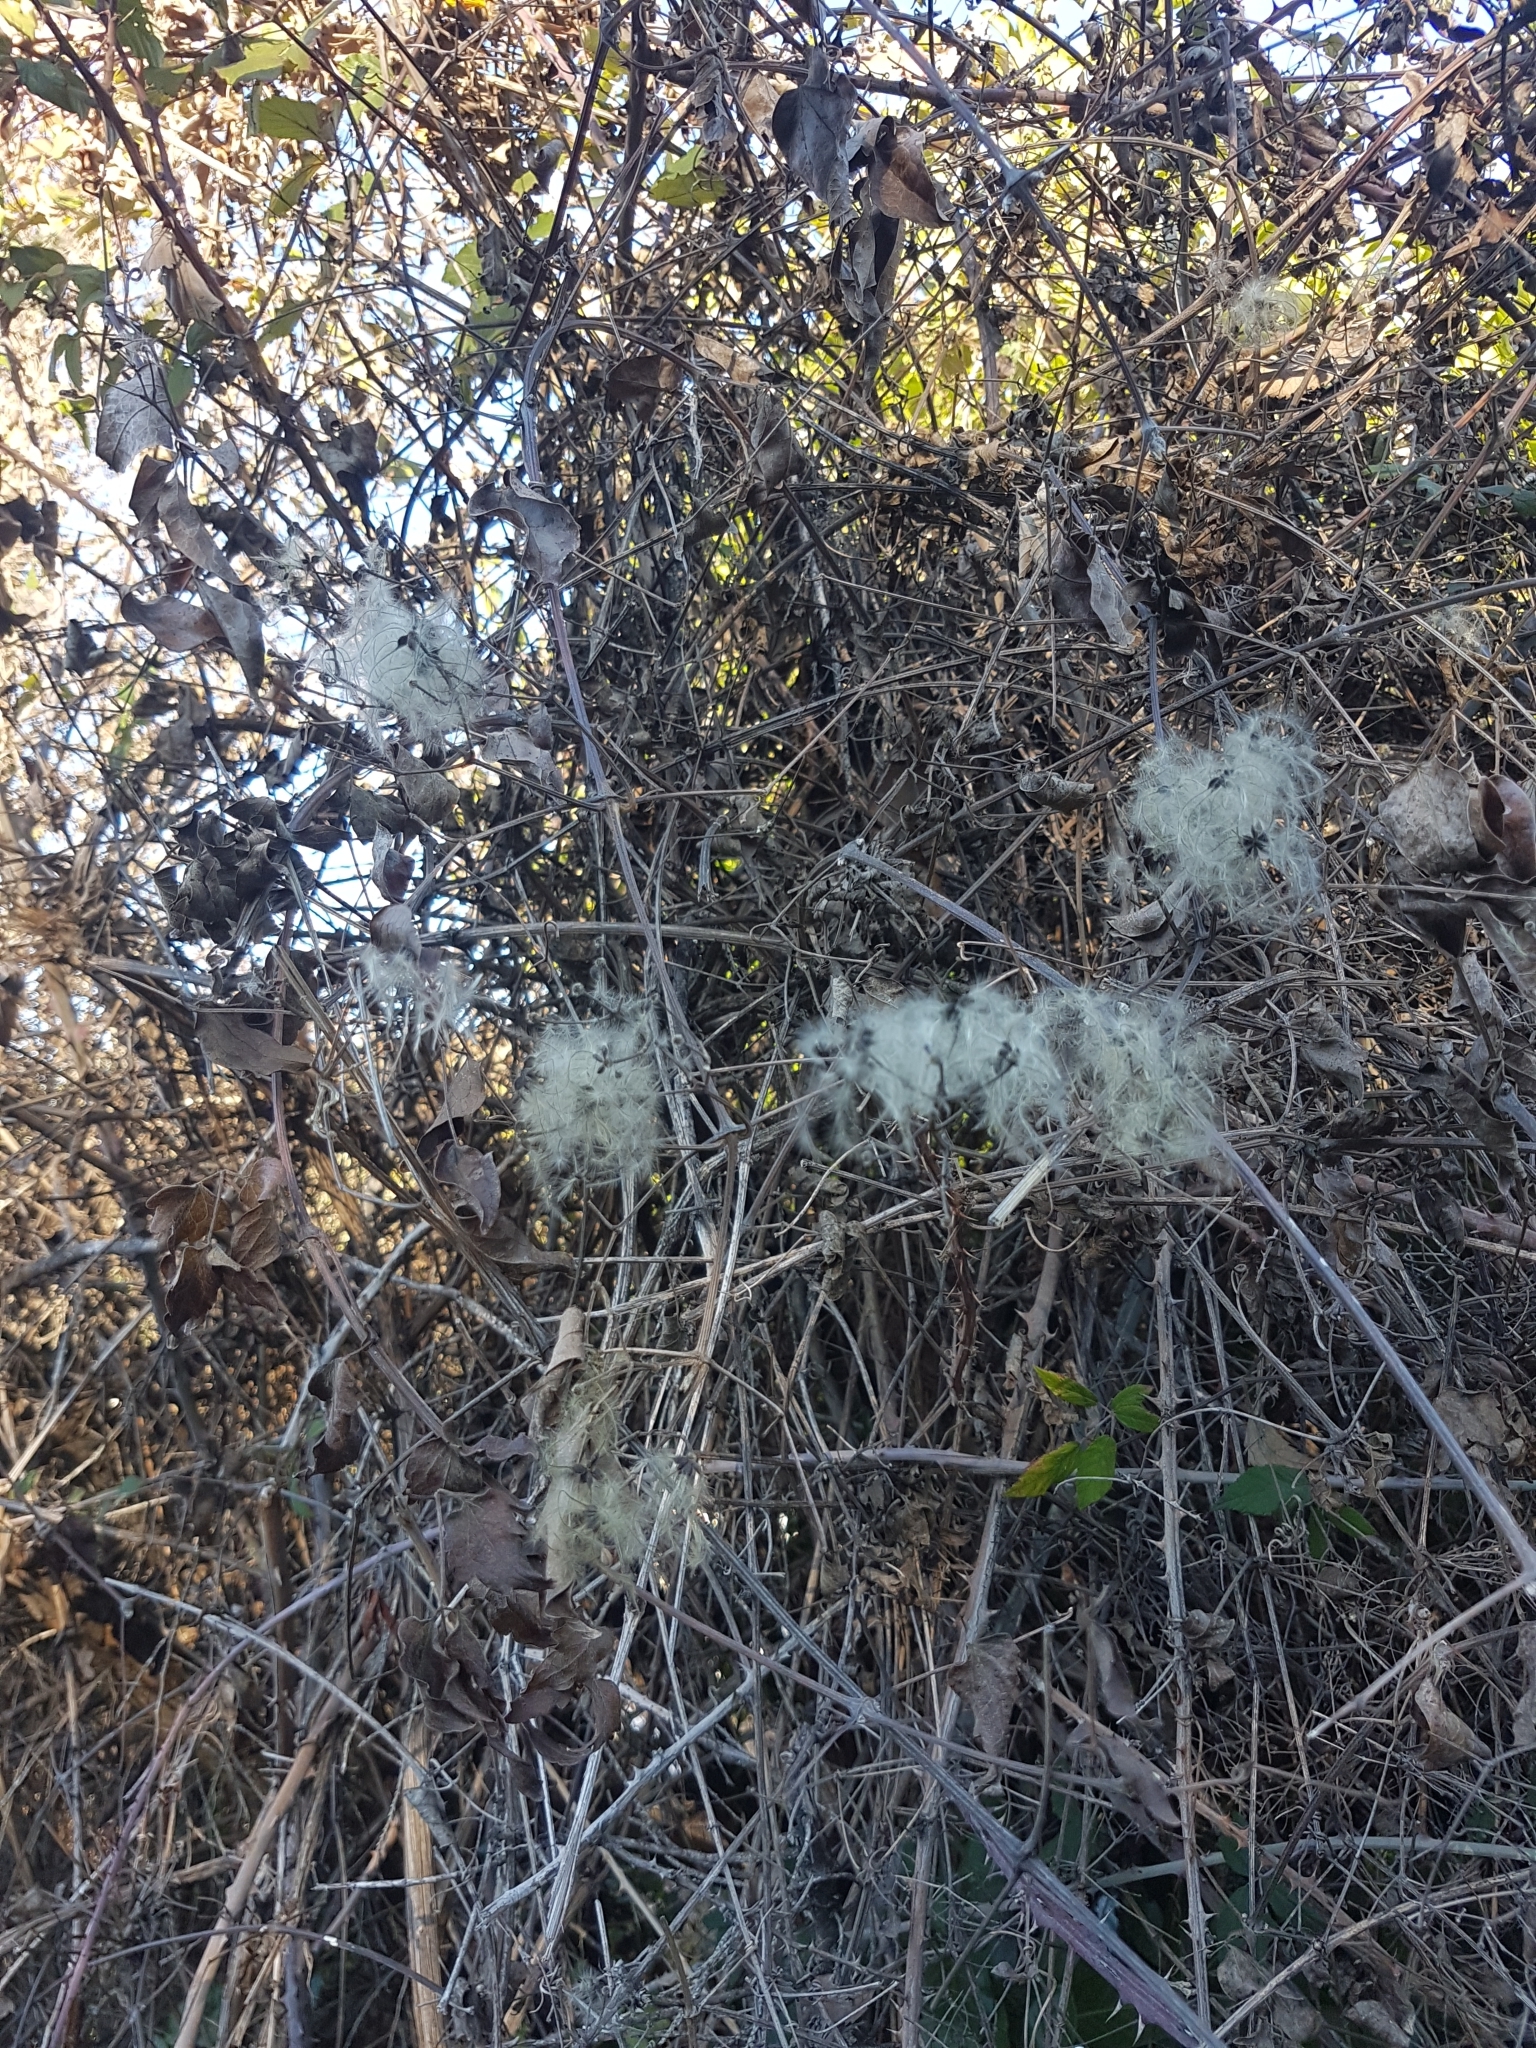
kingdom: Plantae
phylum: Tracheophyta
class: Magnoliopsida
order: Ranunculales
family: Ranunculaceae
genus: Clematis
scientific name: Clematis vitalba
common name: Evergreen clematis
